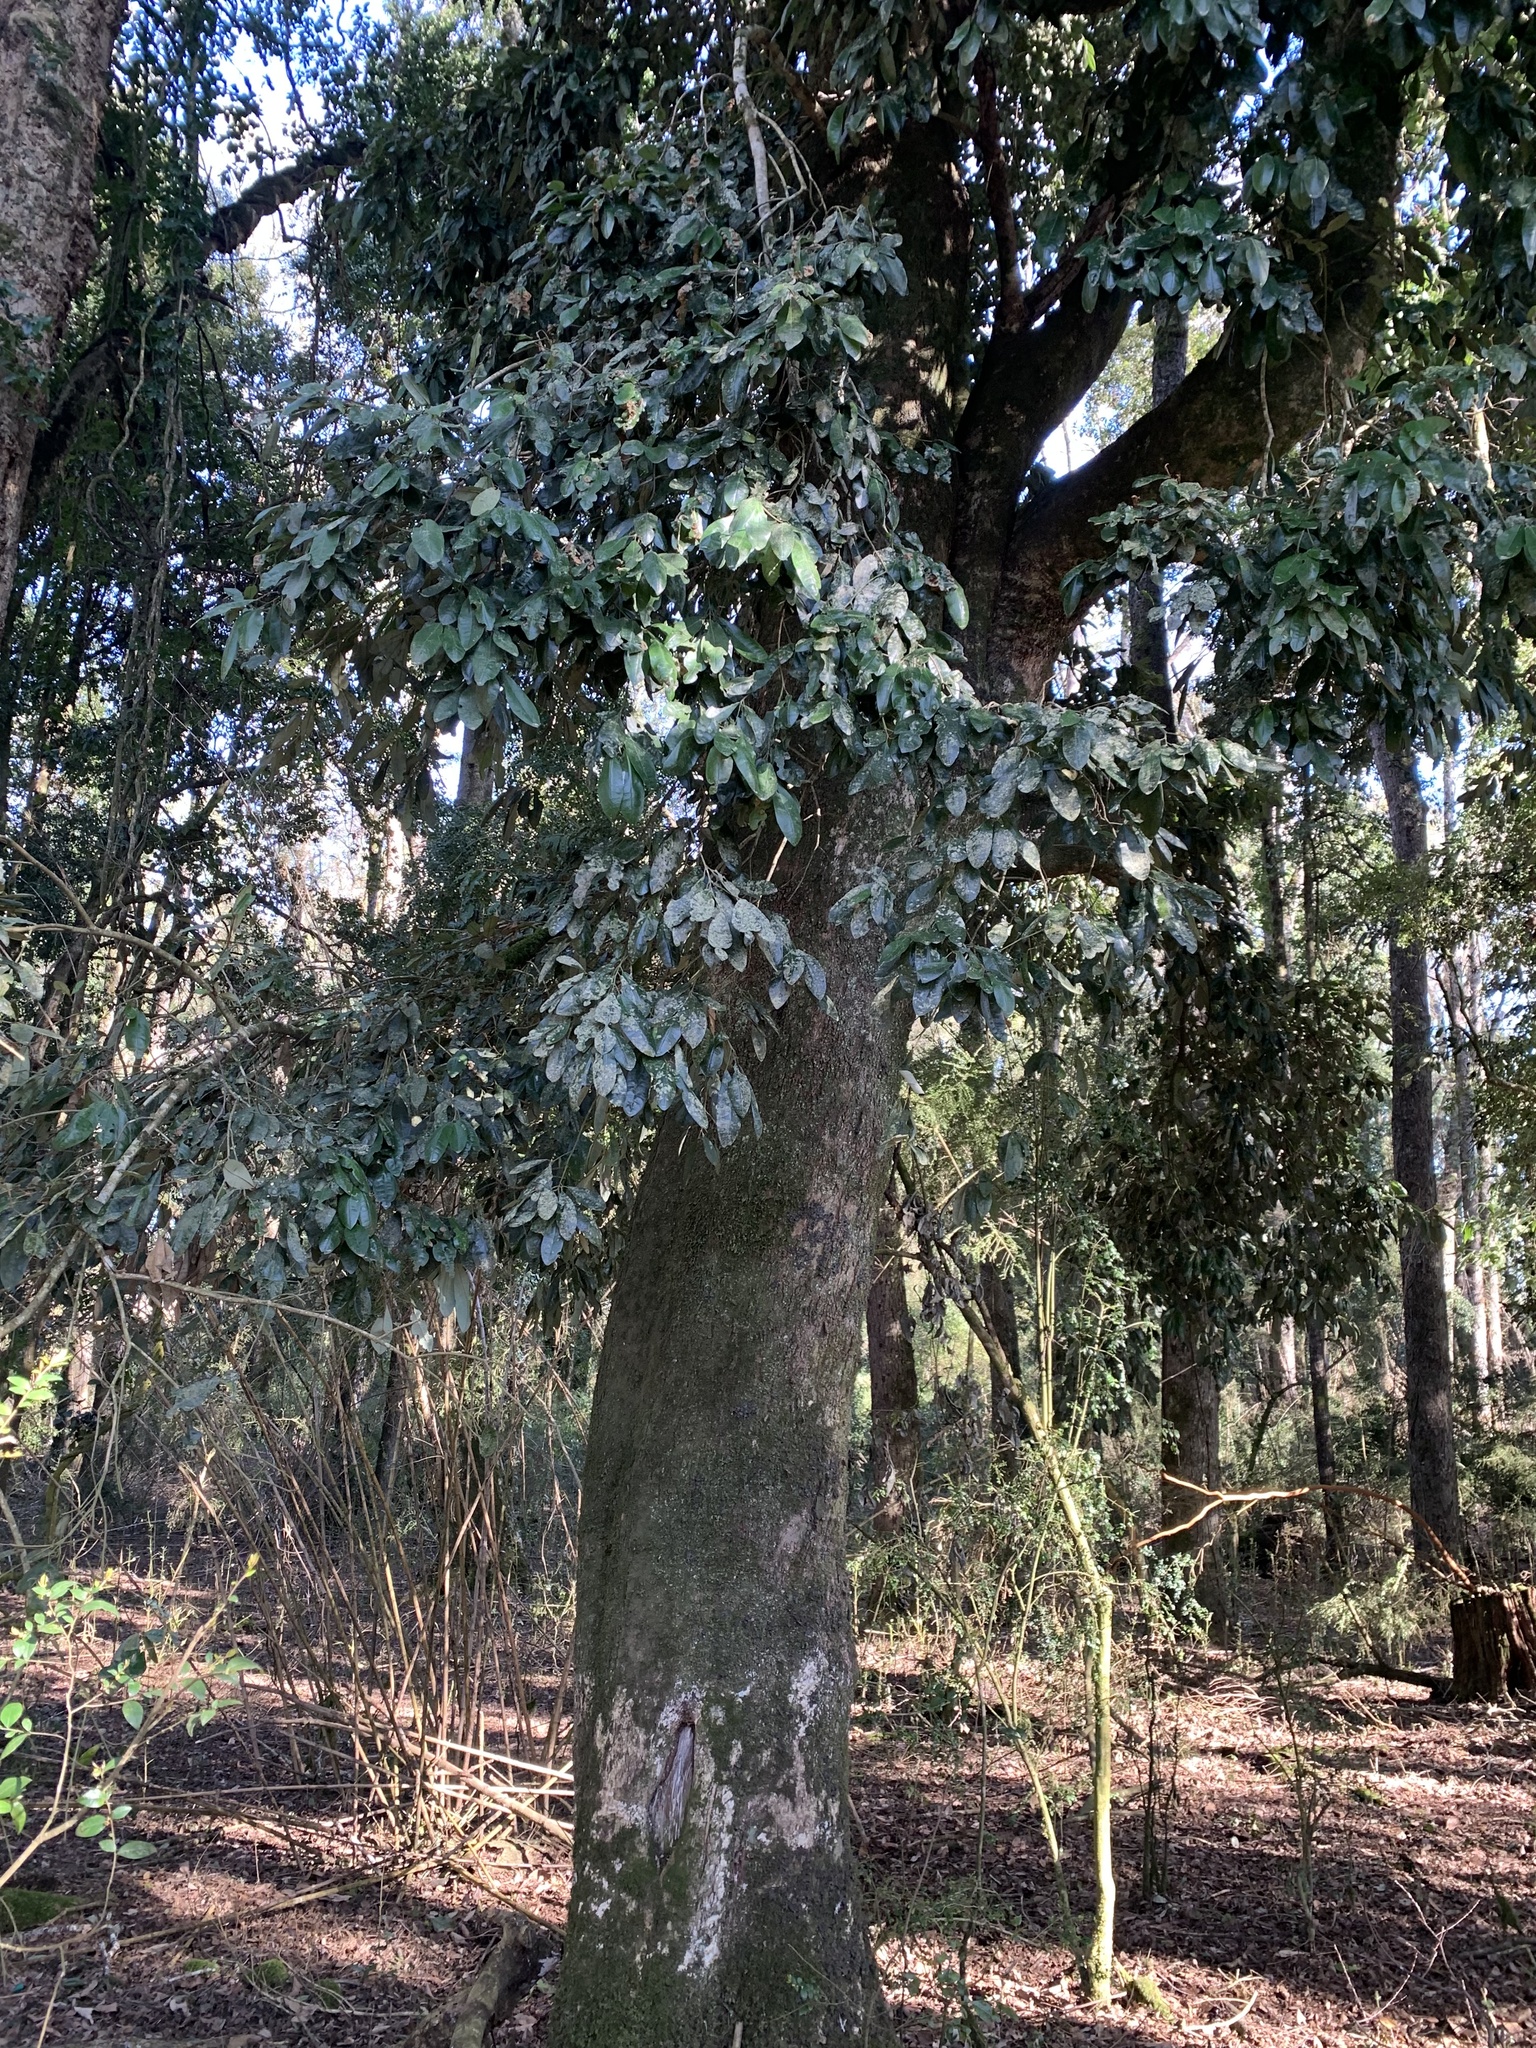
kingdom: Plantae
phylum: Tracheophyta
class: Magnoliopsida
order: Berberidopsidales
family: Aextoxicaceae
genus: Aextoxicon
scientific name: Aextoxicon punctatum
